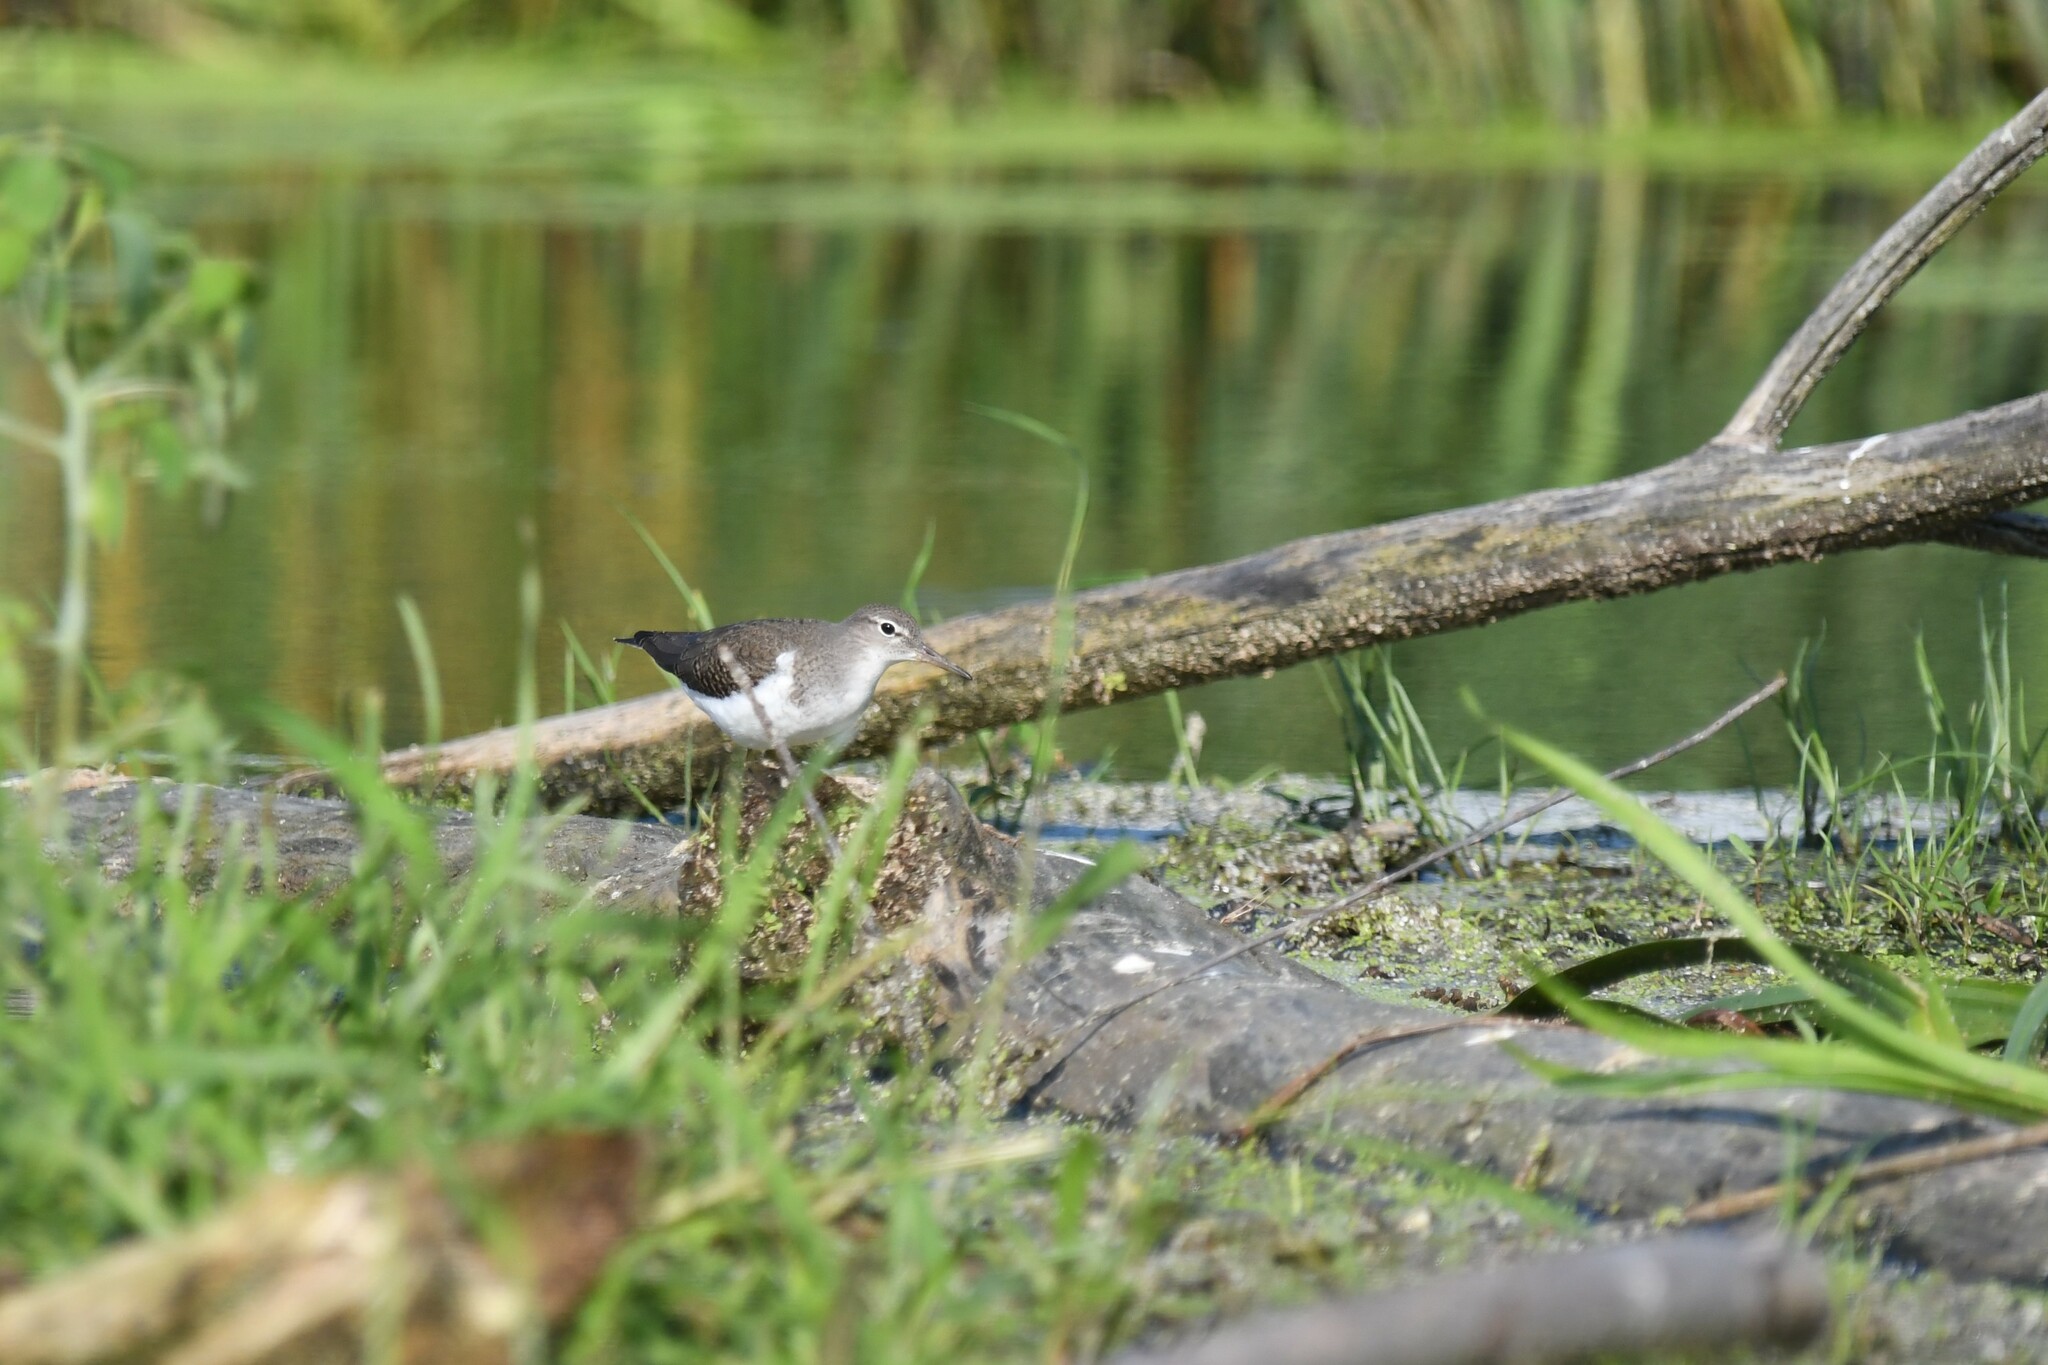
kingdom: Animalia
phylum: Chordata
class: Aves
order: Charadriiformes
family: Scolopacidae
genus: Actitis
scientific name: Actitis macularius
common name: Spotted sandpiper
